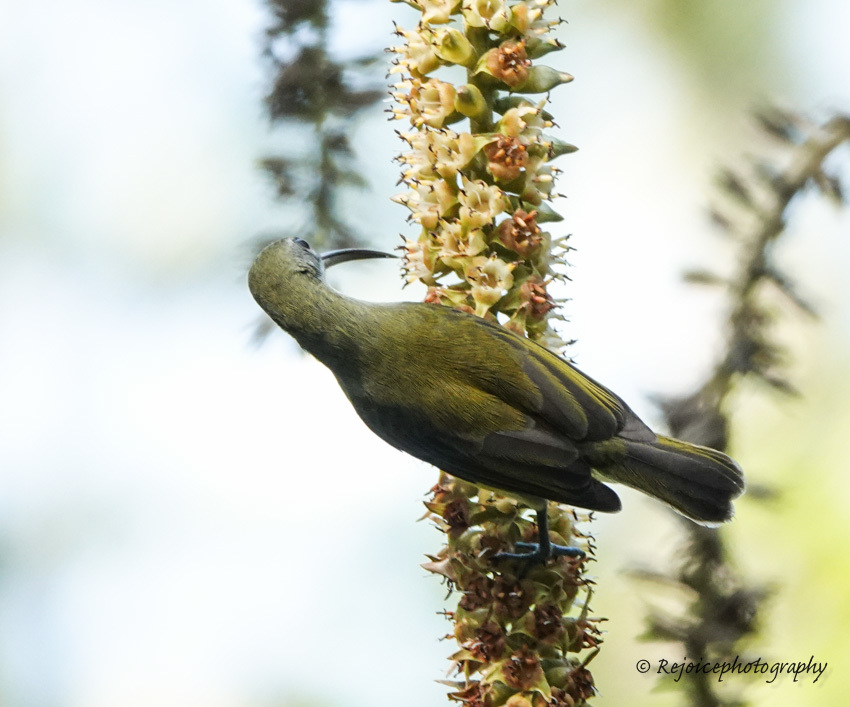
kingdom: Animalia
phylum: Chordata
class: Aves
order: Passeriformes
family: Nectariniidae
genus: Arachnothera
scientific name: Arachnothera longirostra
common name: Little spiderhunter
